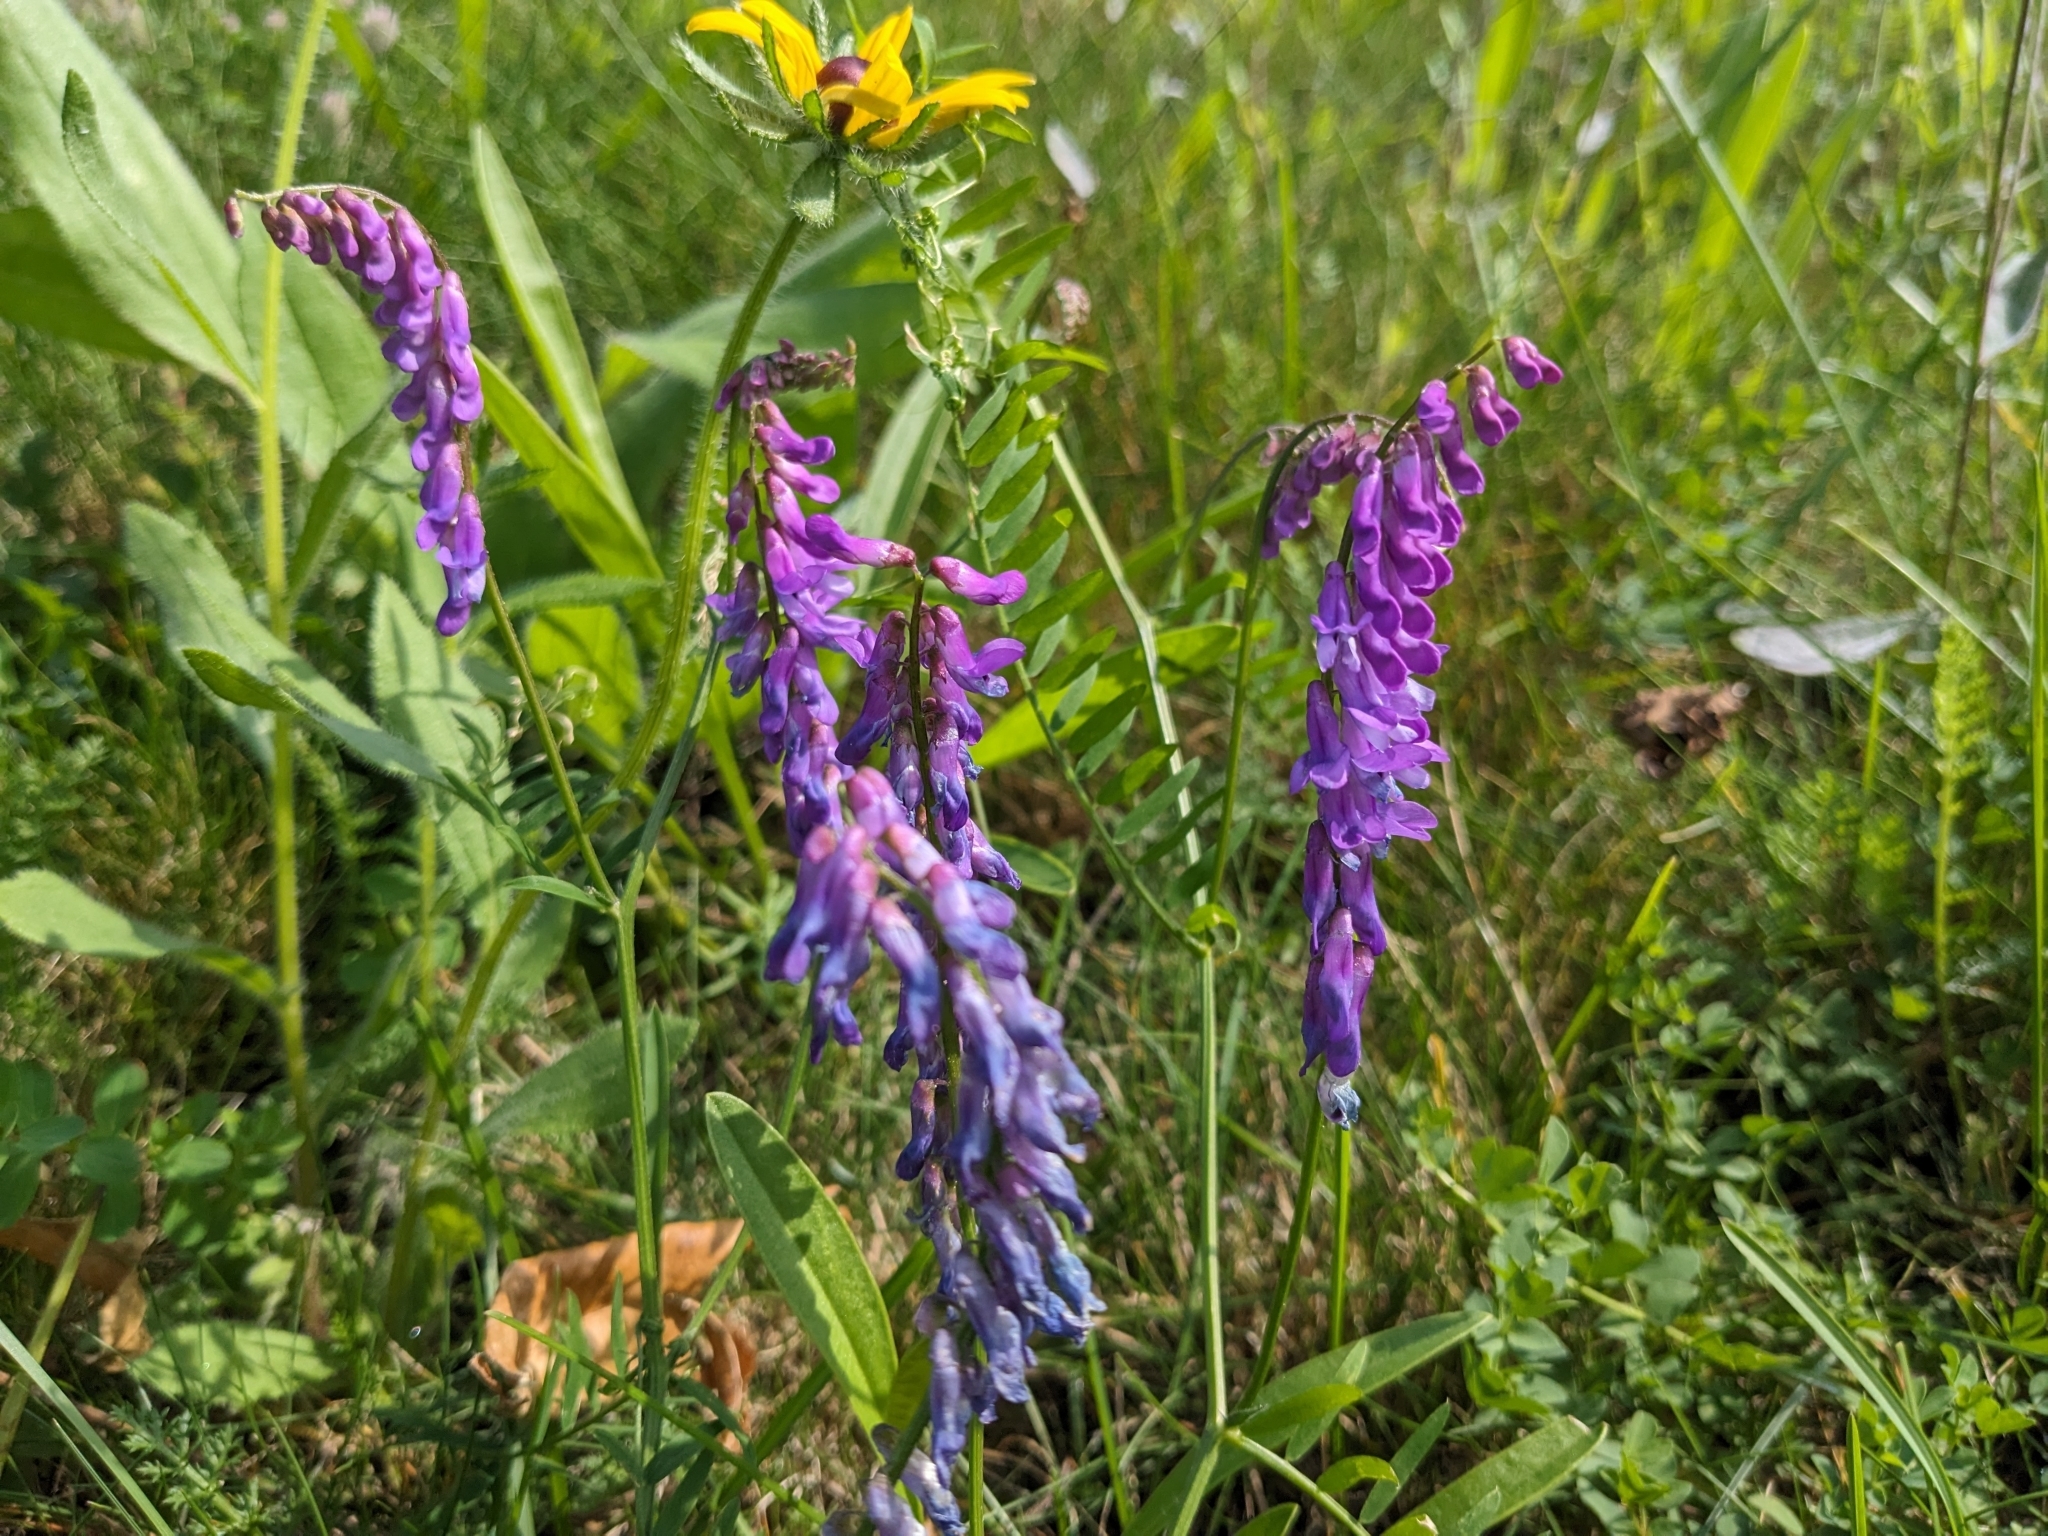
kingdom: Plantae
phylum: Tracheophyta
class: Magnoliopsida
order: Fabales
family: Fabaceae
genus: Vicia
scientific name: Vicia cracca
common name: Bird vetch
